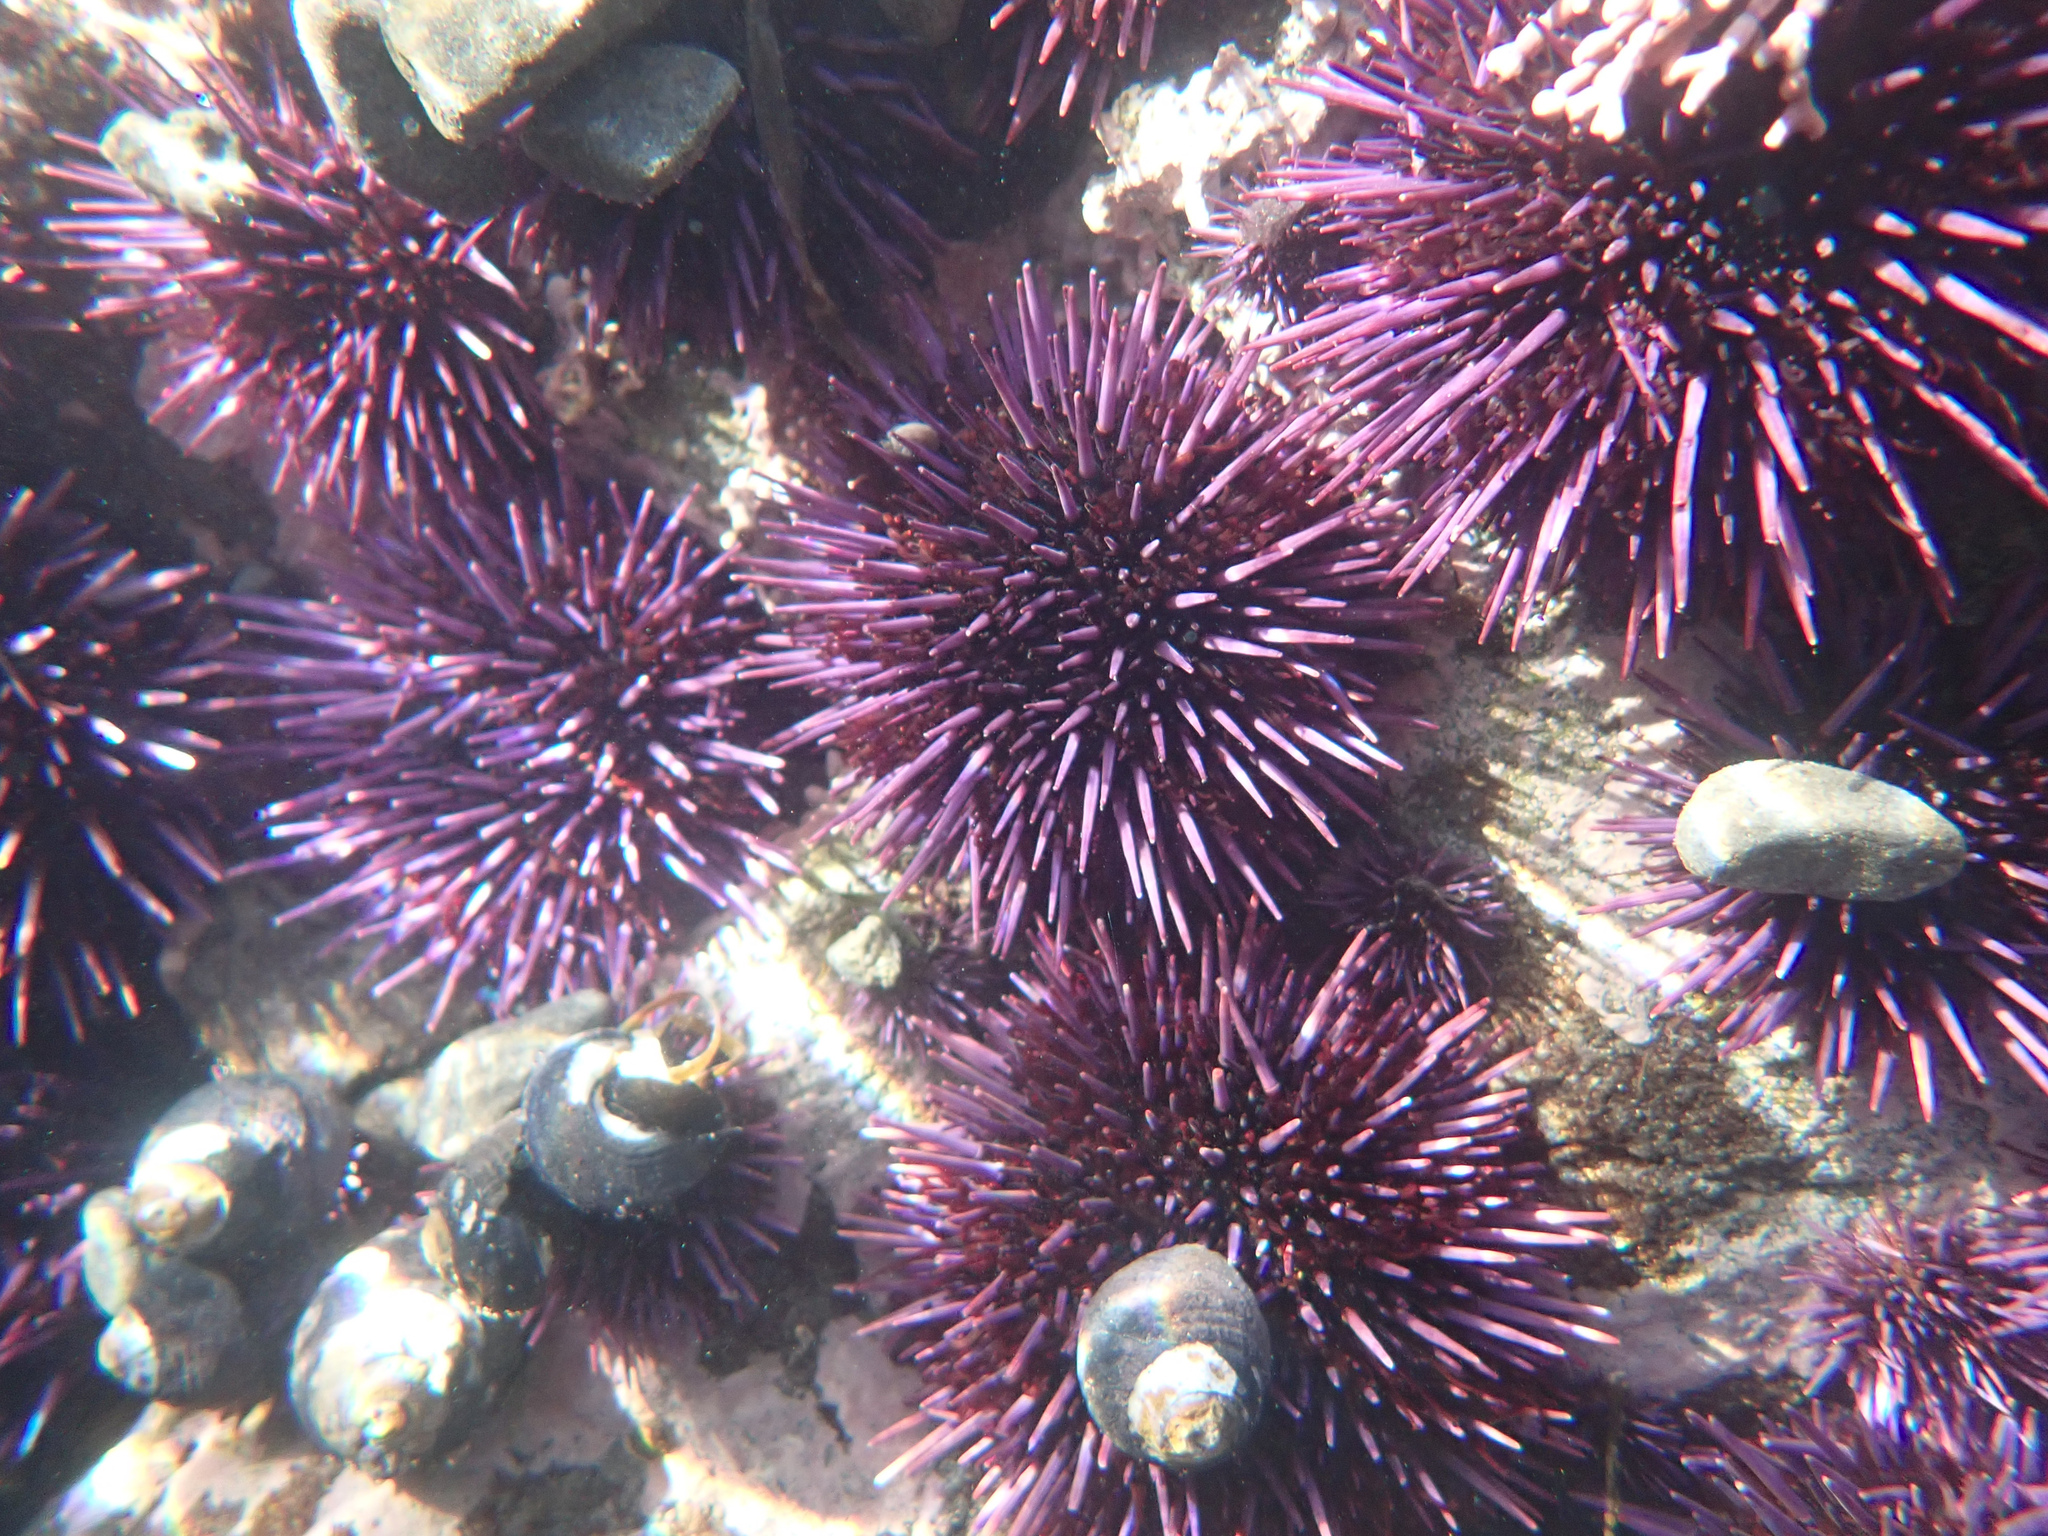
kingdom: Animalia
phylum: Echinodermata
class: Echinoidea
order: Camarodonta
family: Strongylocentrotidae
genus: Strongylocentrotus
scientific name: Strongylocentrotus purpuratus
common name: Purple sea urchin
